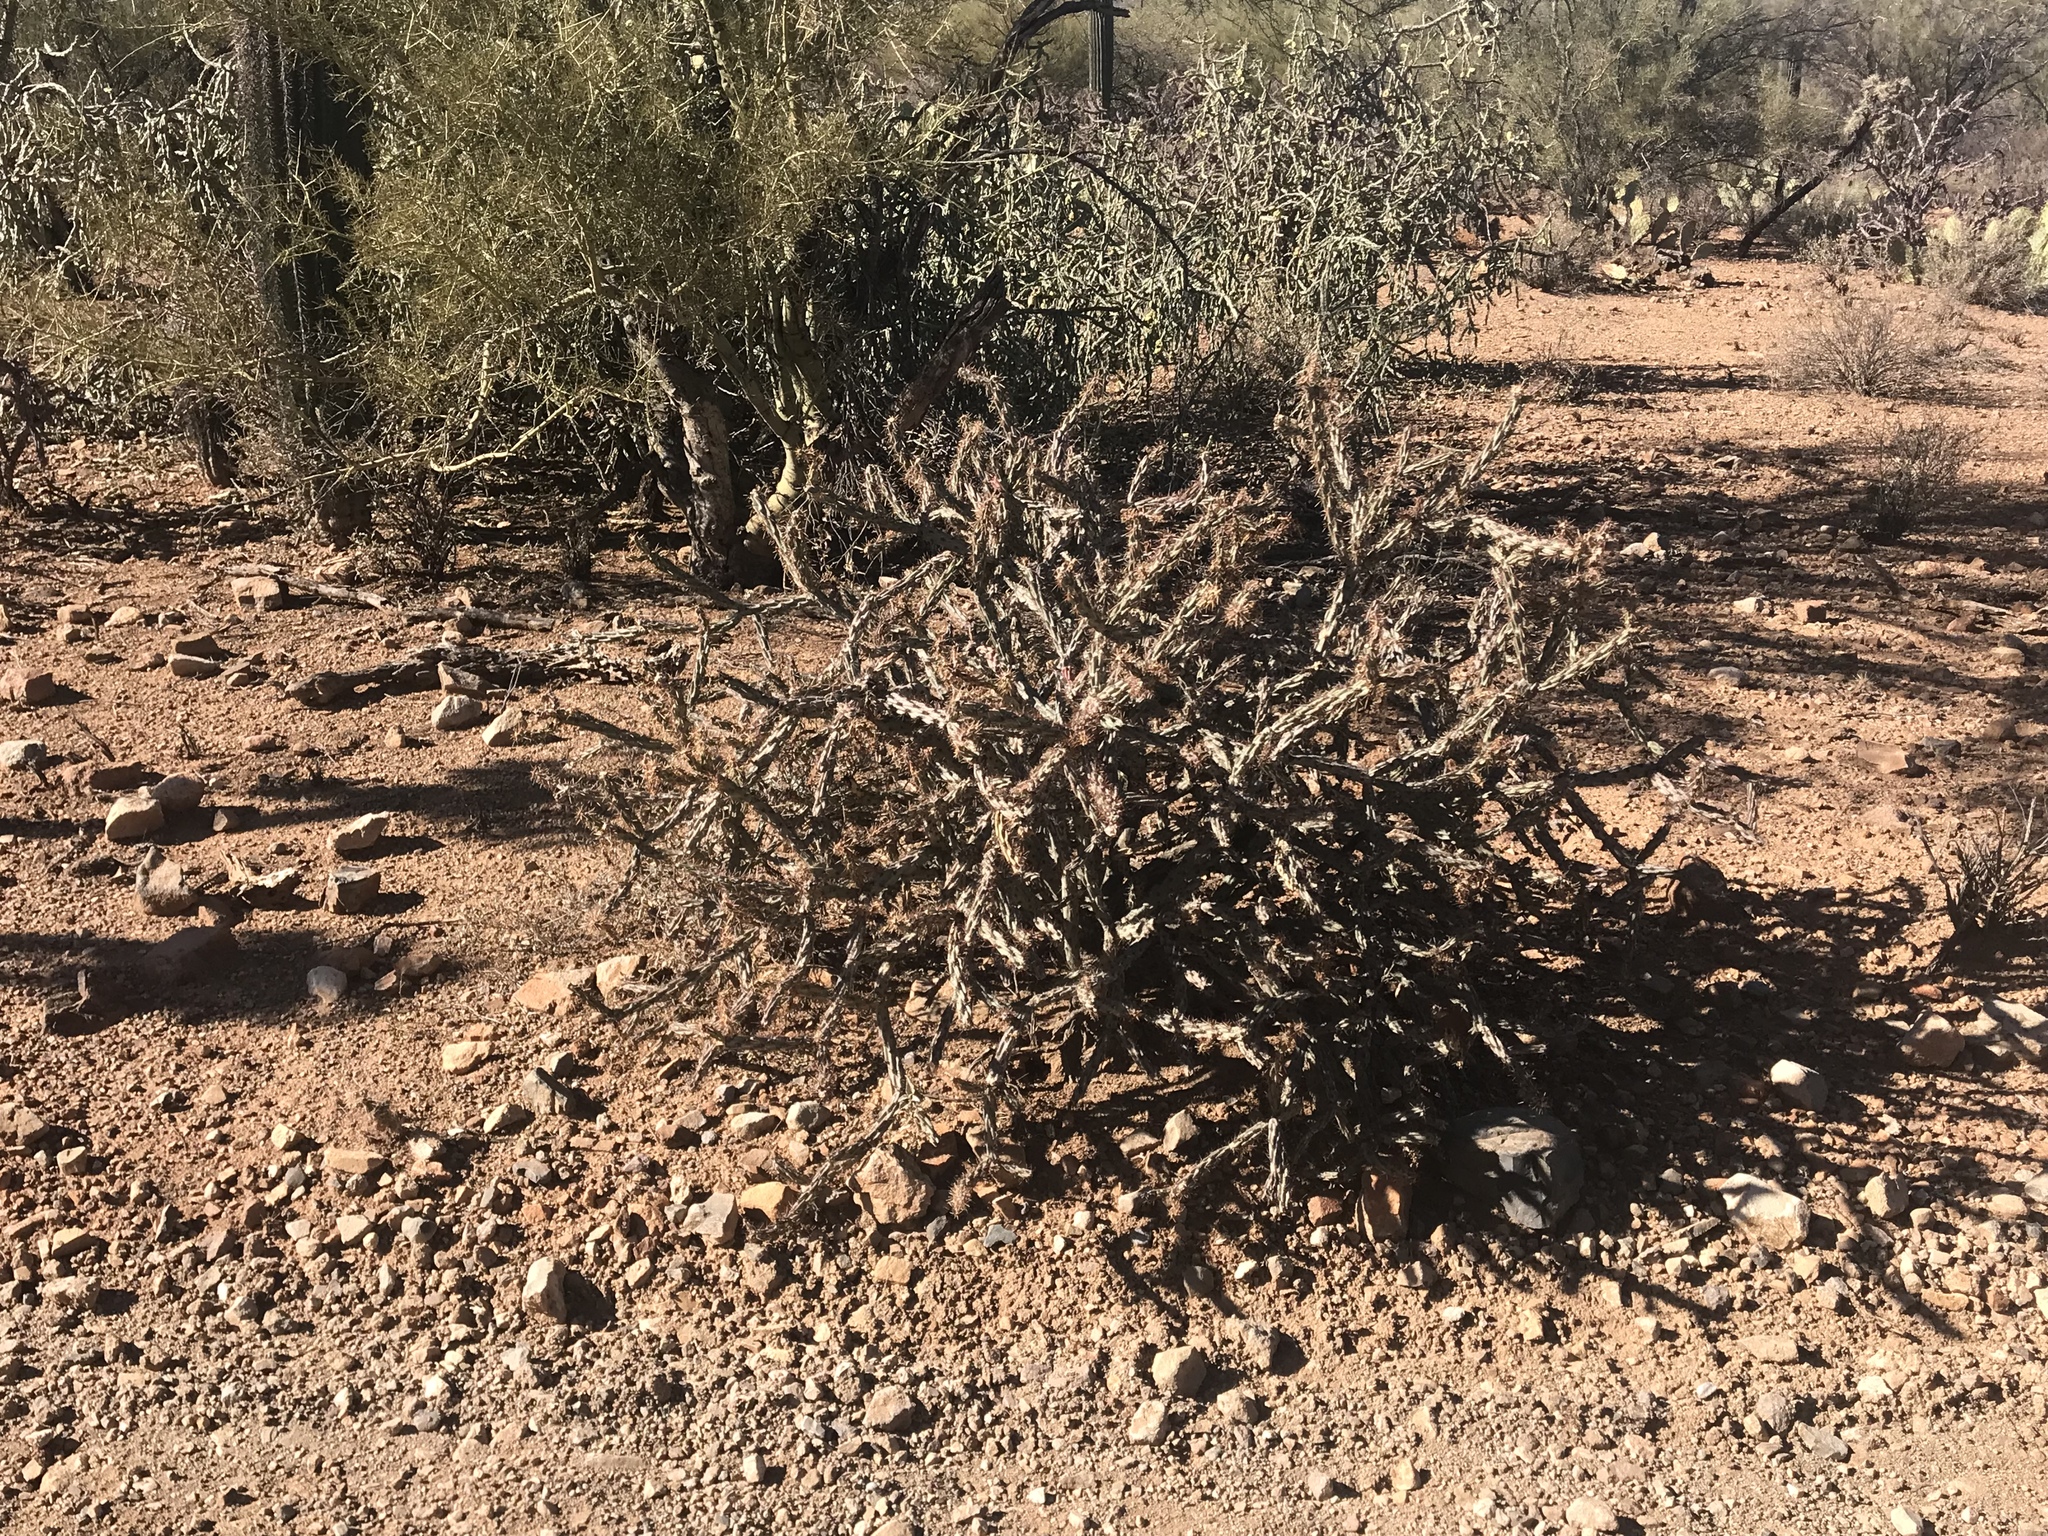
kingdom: Plantae
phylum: Tracheophyta
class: Magnoliopsida
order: Caryophyllales
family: Cactaceae
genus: Cylindropuntia
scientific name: Cylindropuntia acanthocarpa
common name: Buckhorn cholla
